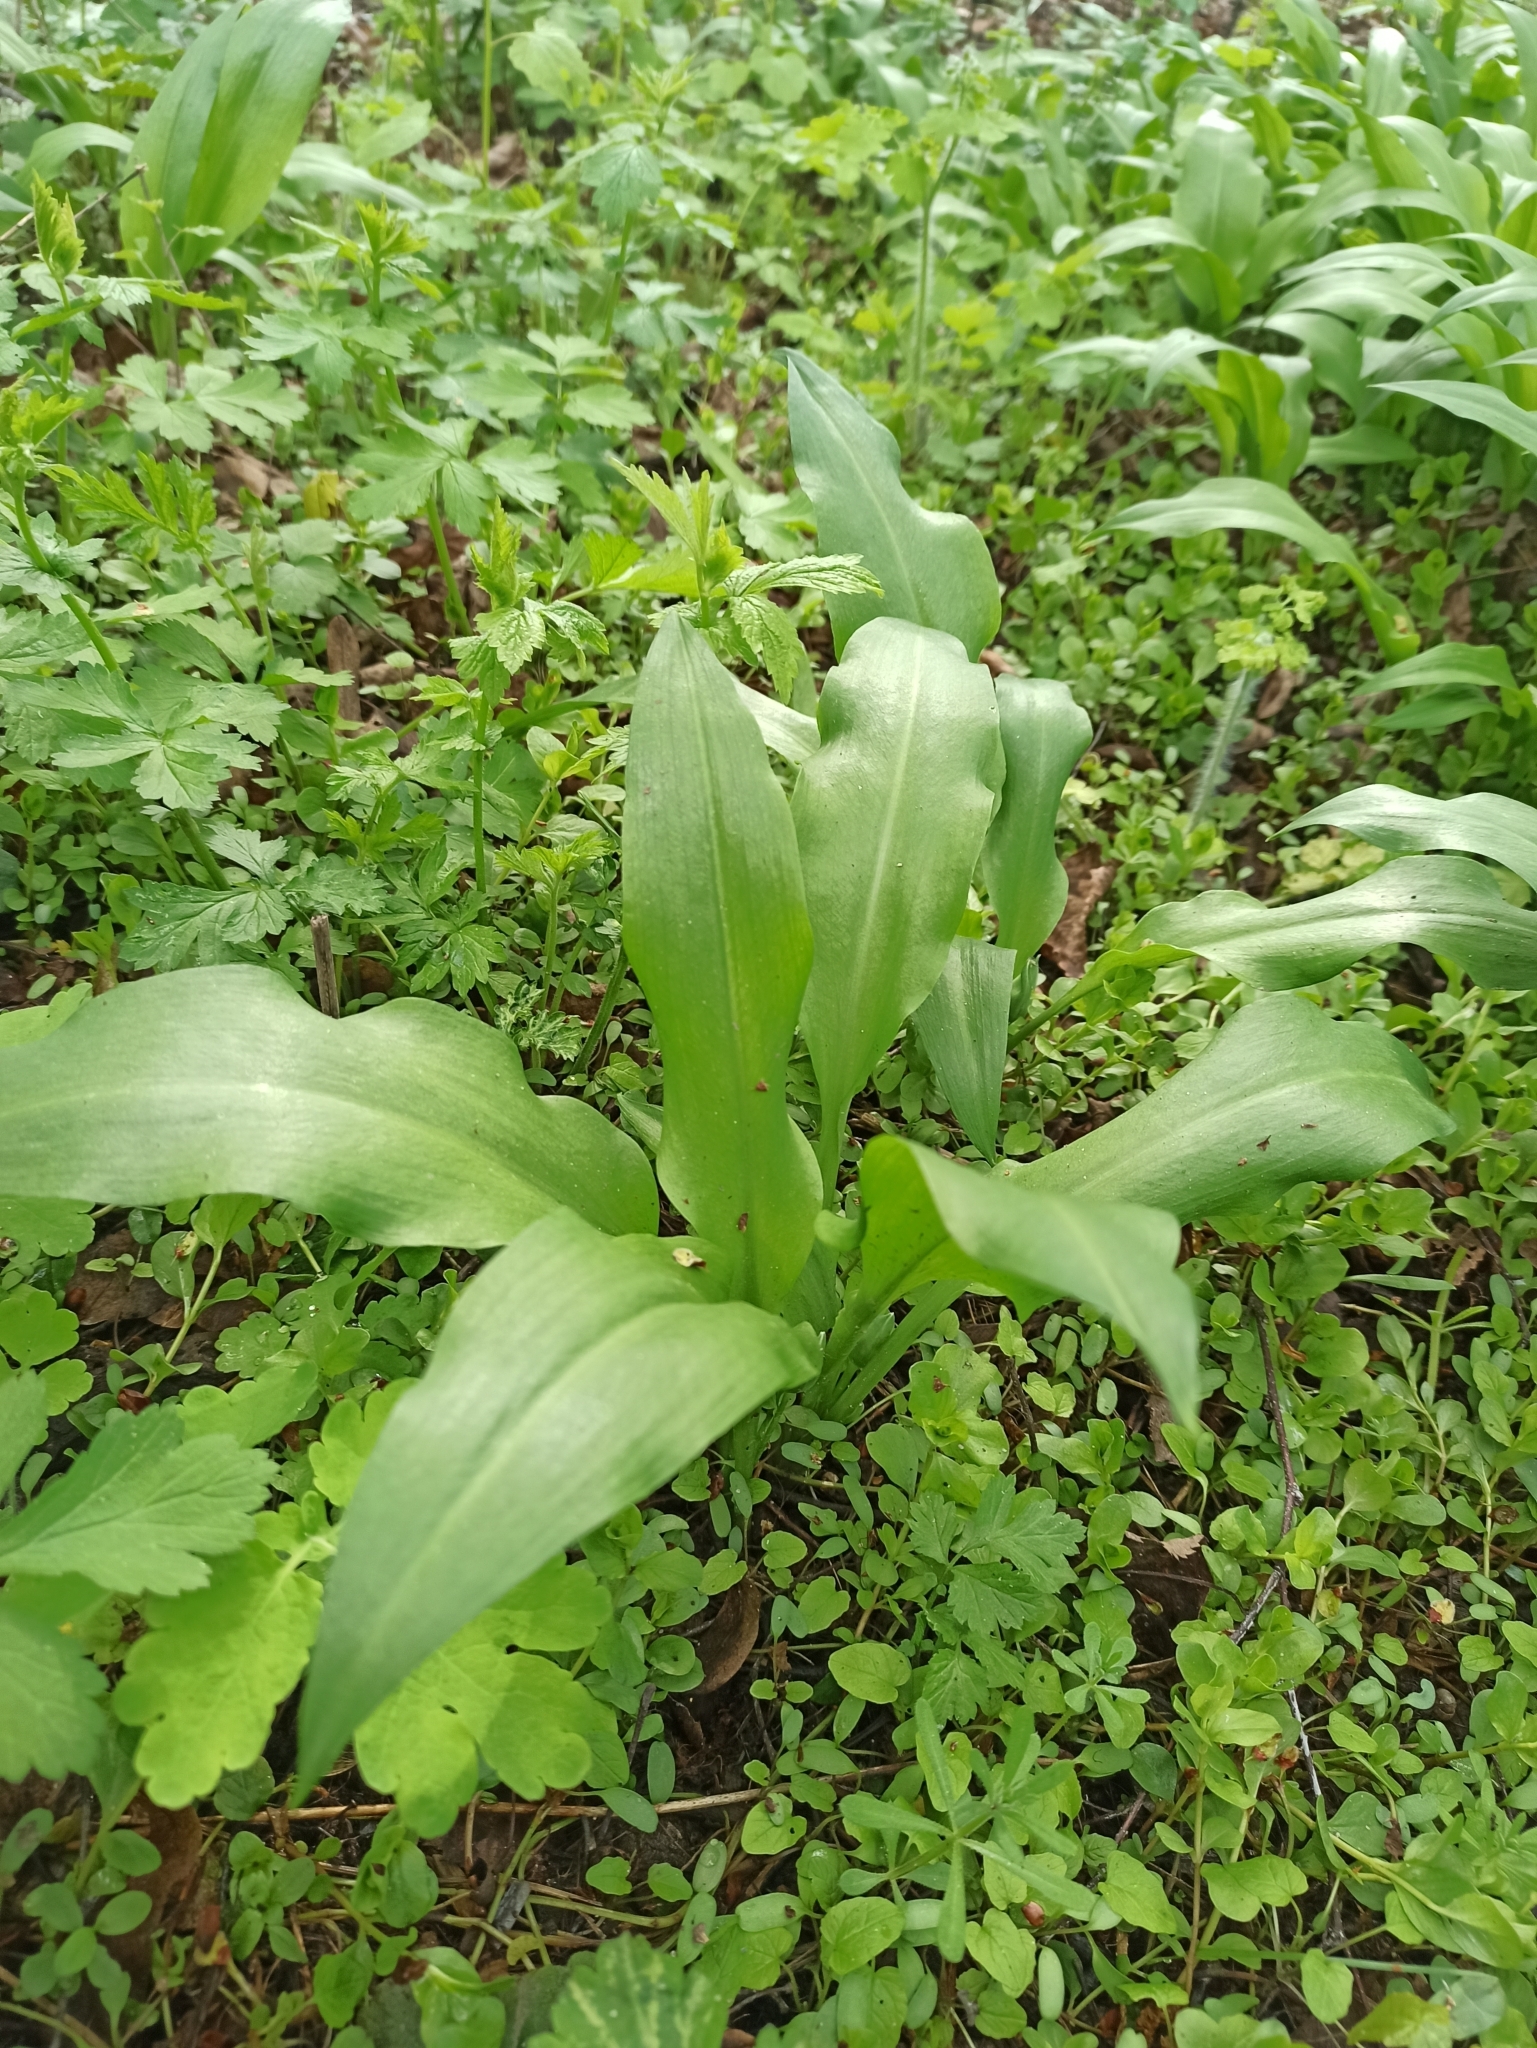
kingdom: Plantae
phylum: Tracheophyta
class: Liliopsida
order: Asparagales
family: Amaryllidaceae
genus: Allium
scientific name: Allium ursinum
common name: Ramsons
